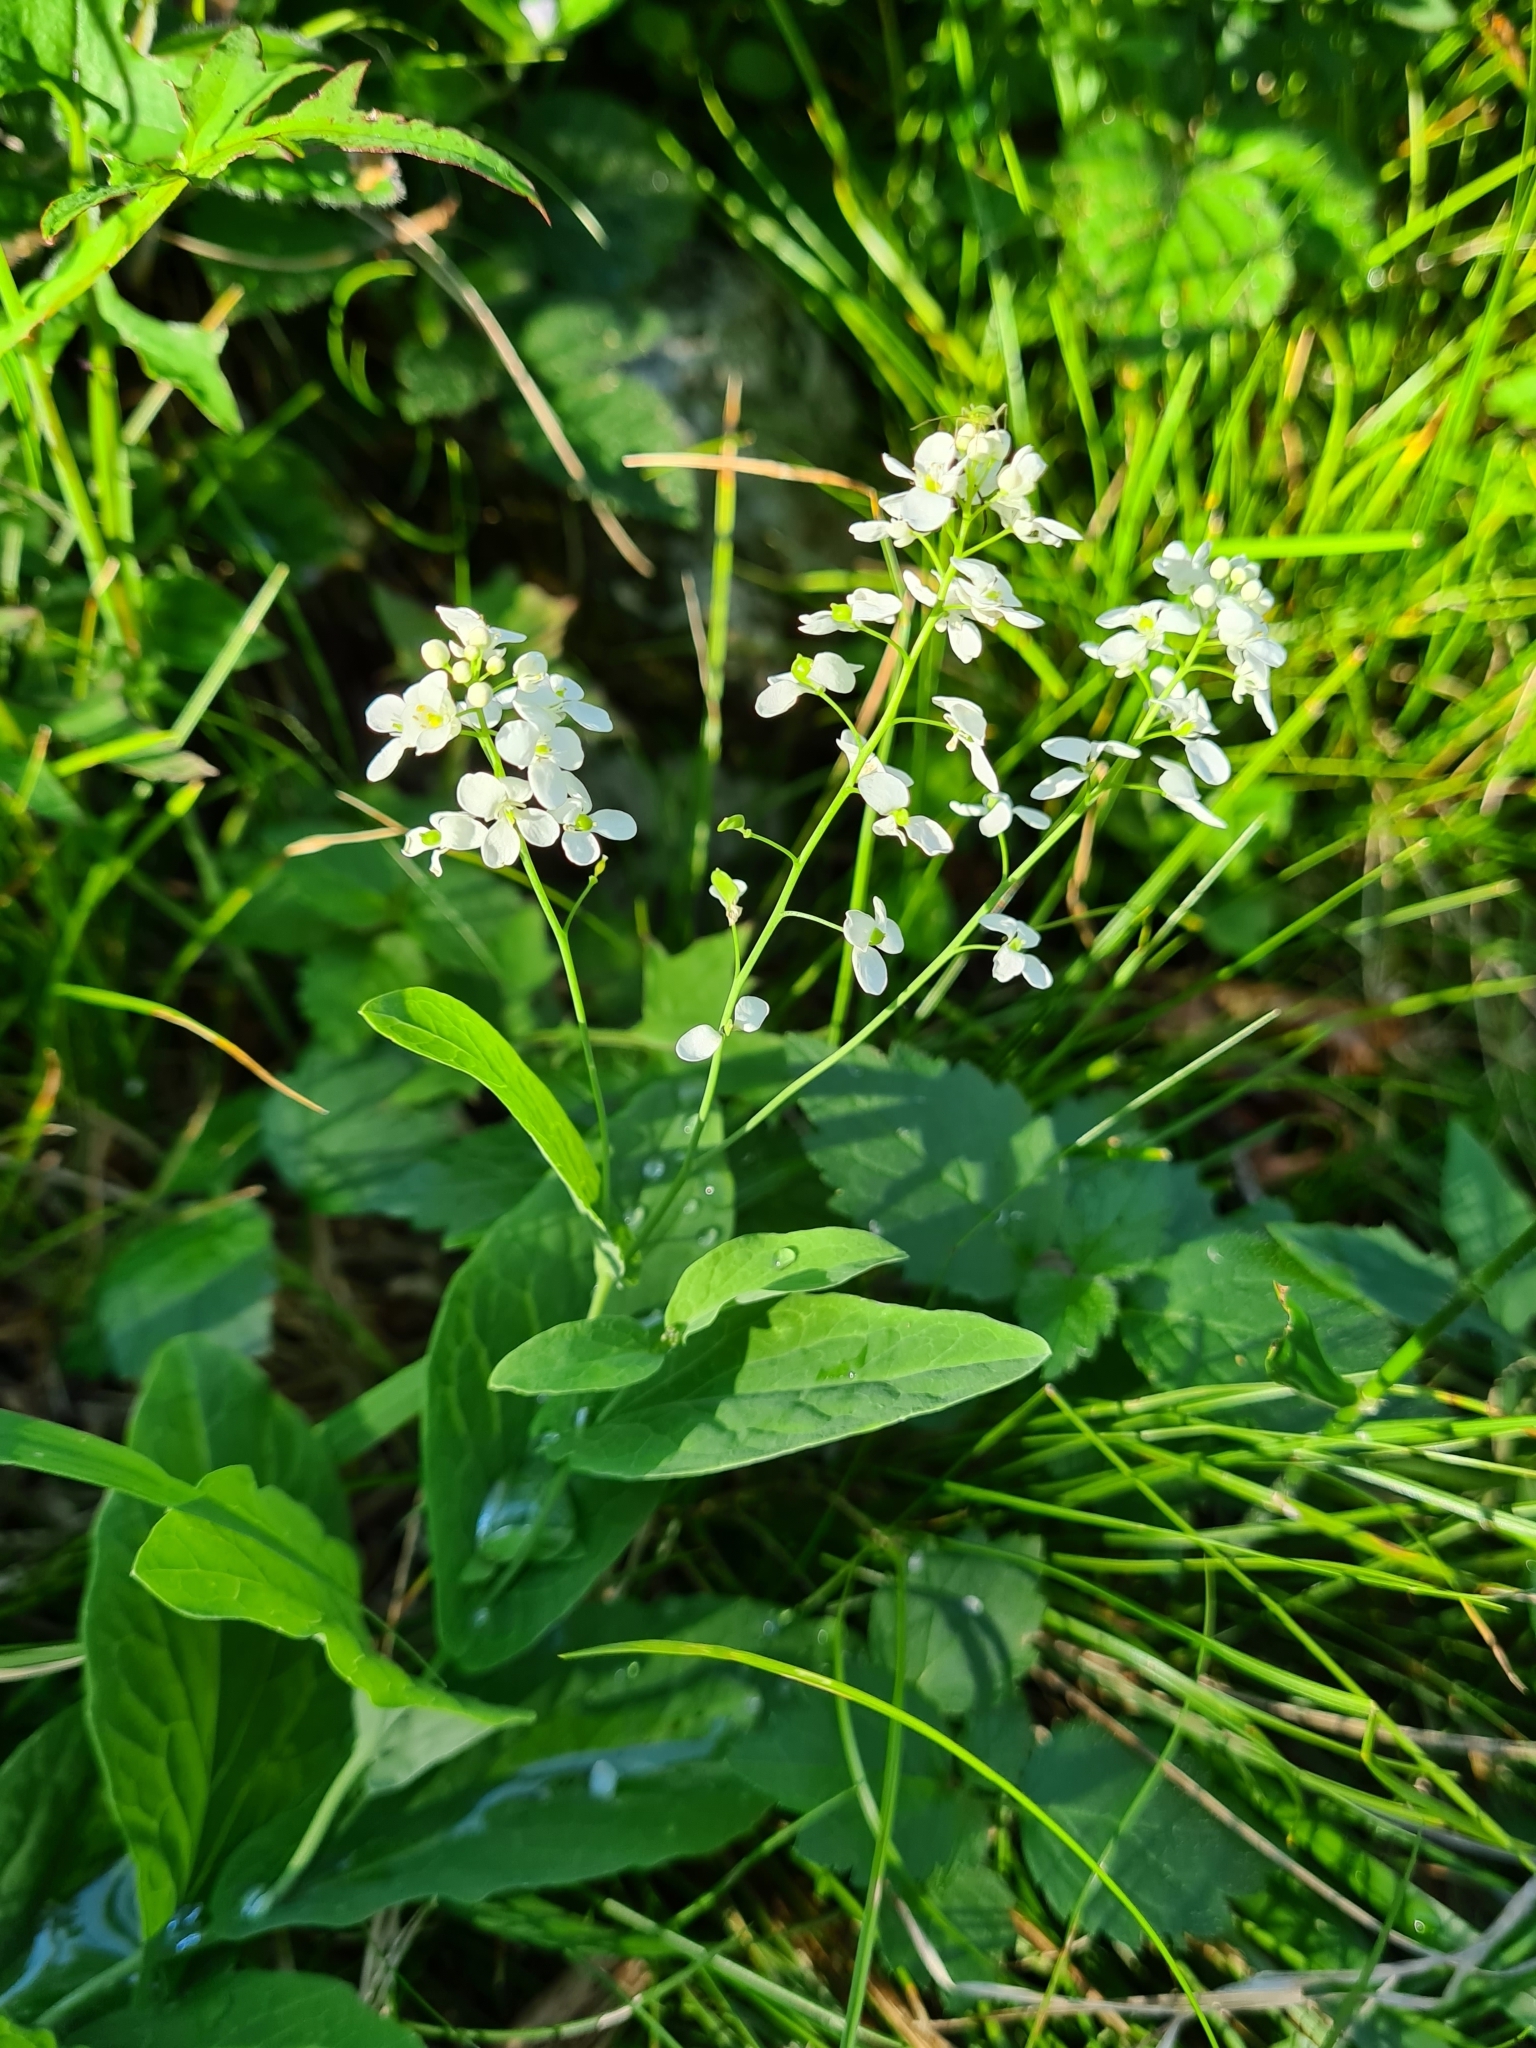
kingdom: Plantae
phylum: Tracheophyta
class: Magnoliopsida
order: Brassicales
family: Brassicaceae
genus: Peltaria
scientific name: Peltaria alliacea
